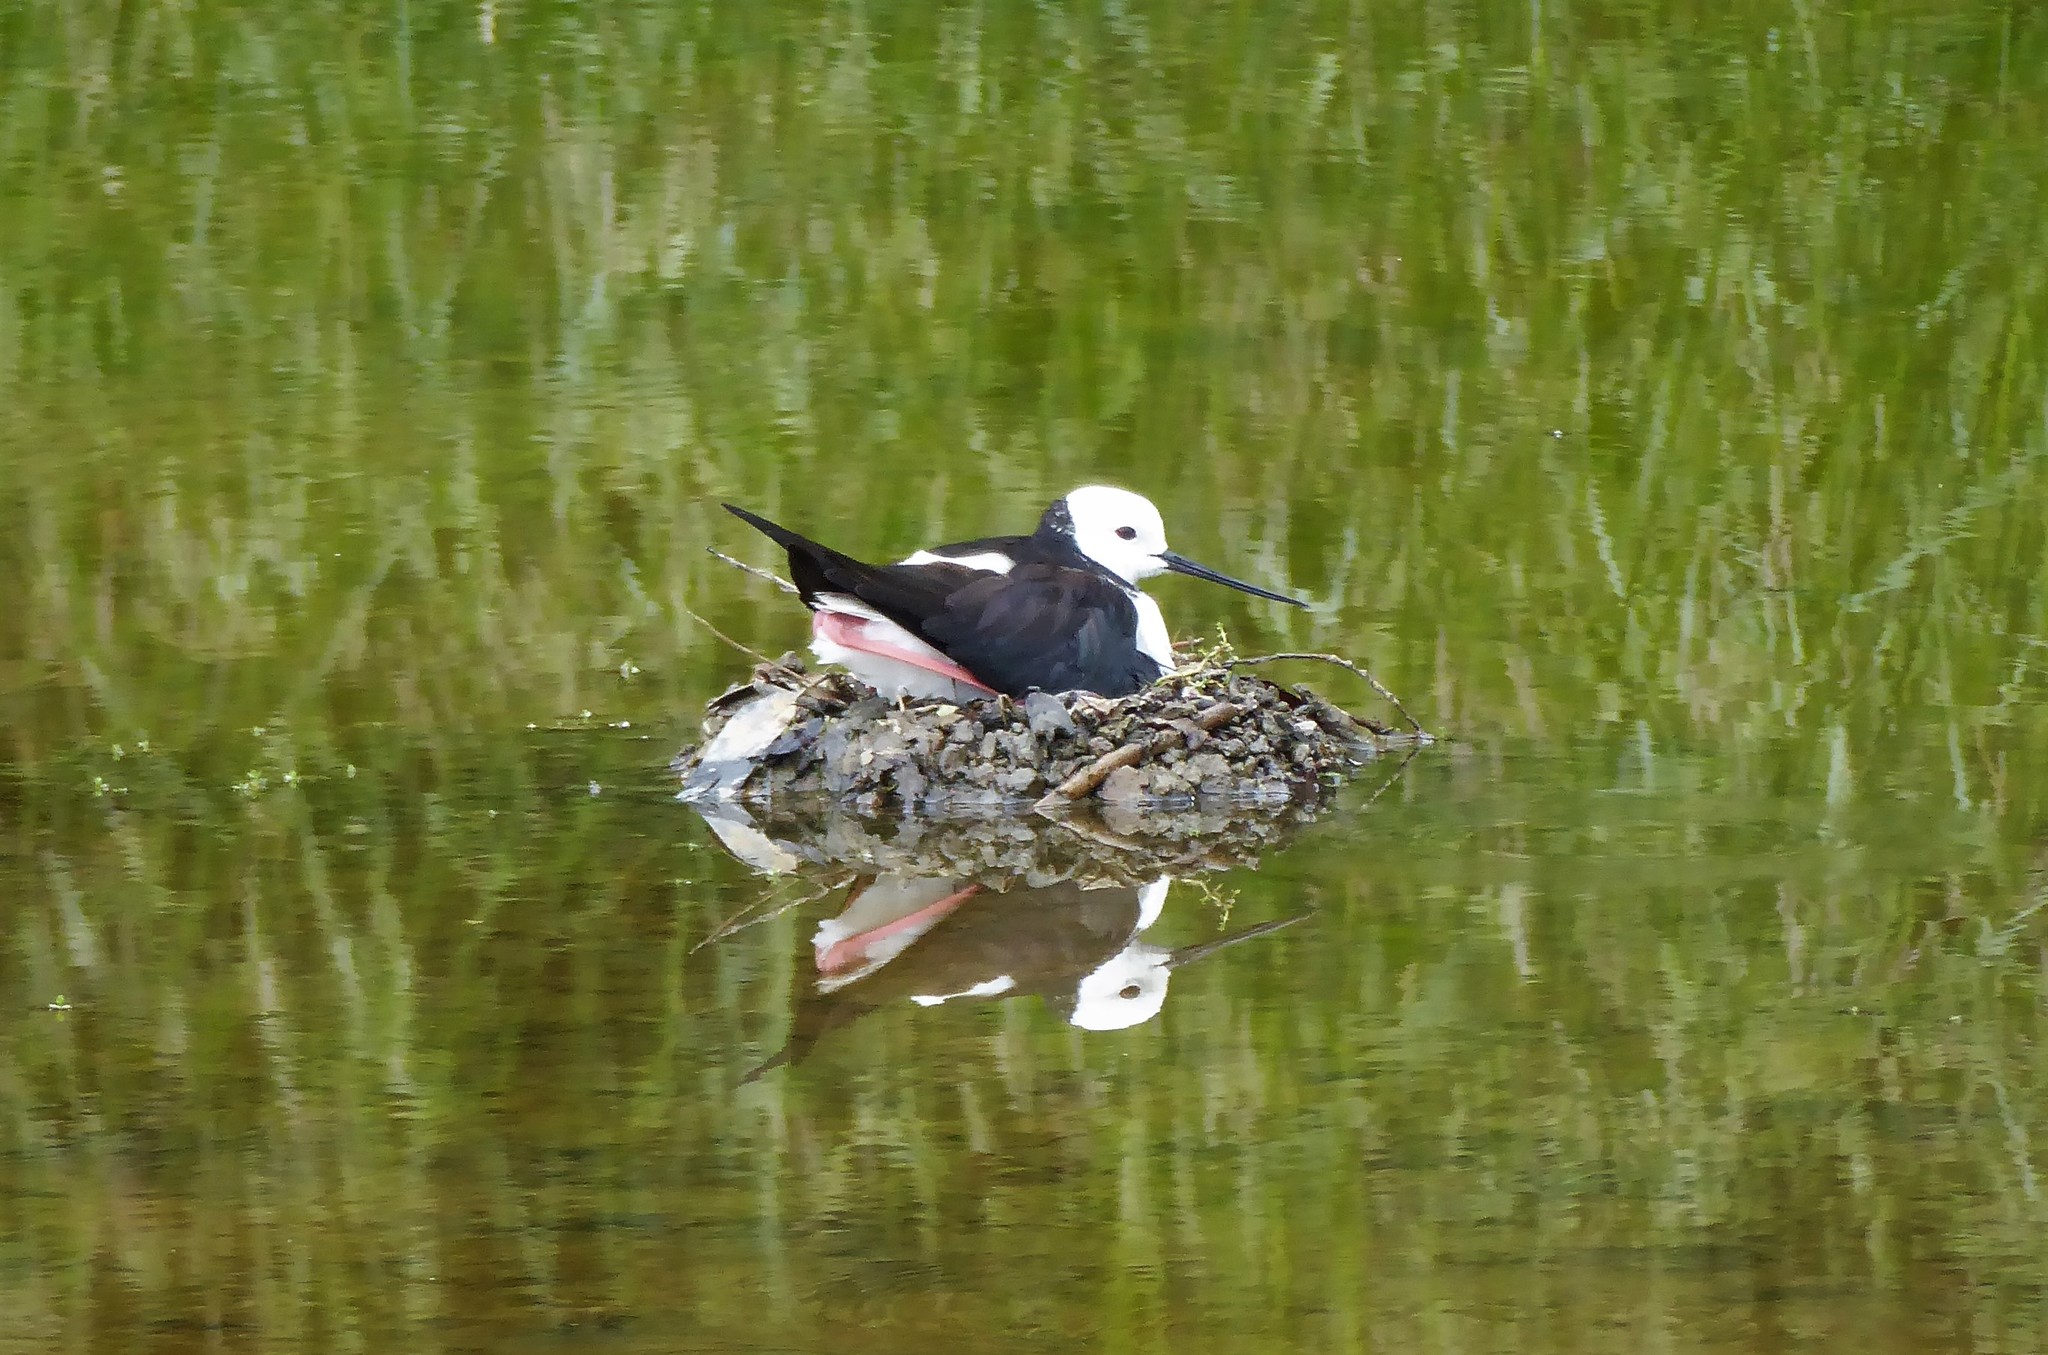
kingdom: Animalia
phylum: Chordata
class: Aves
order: Charadriiformes
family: Recurvirostridae
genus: Himantopus
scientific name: Himantopus leucocephalus
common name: White-headed stilt
